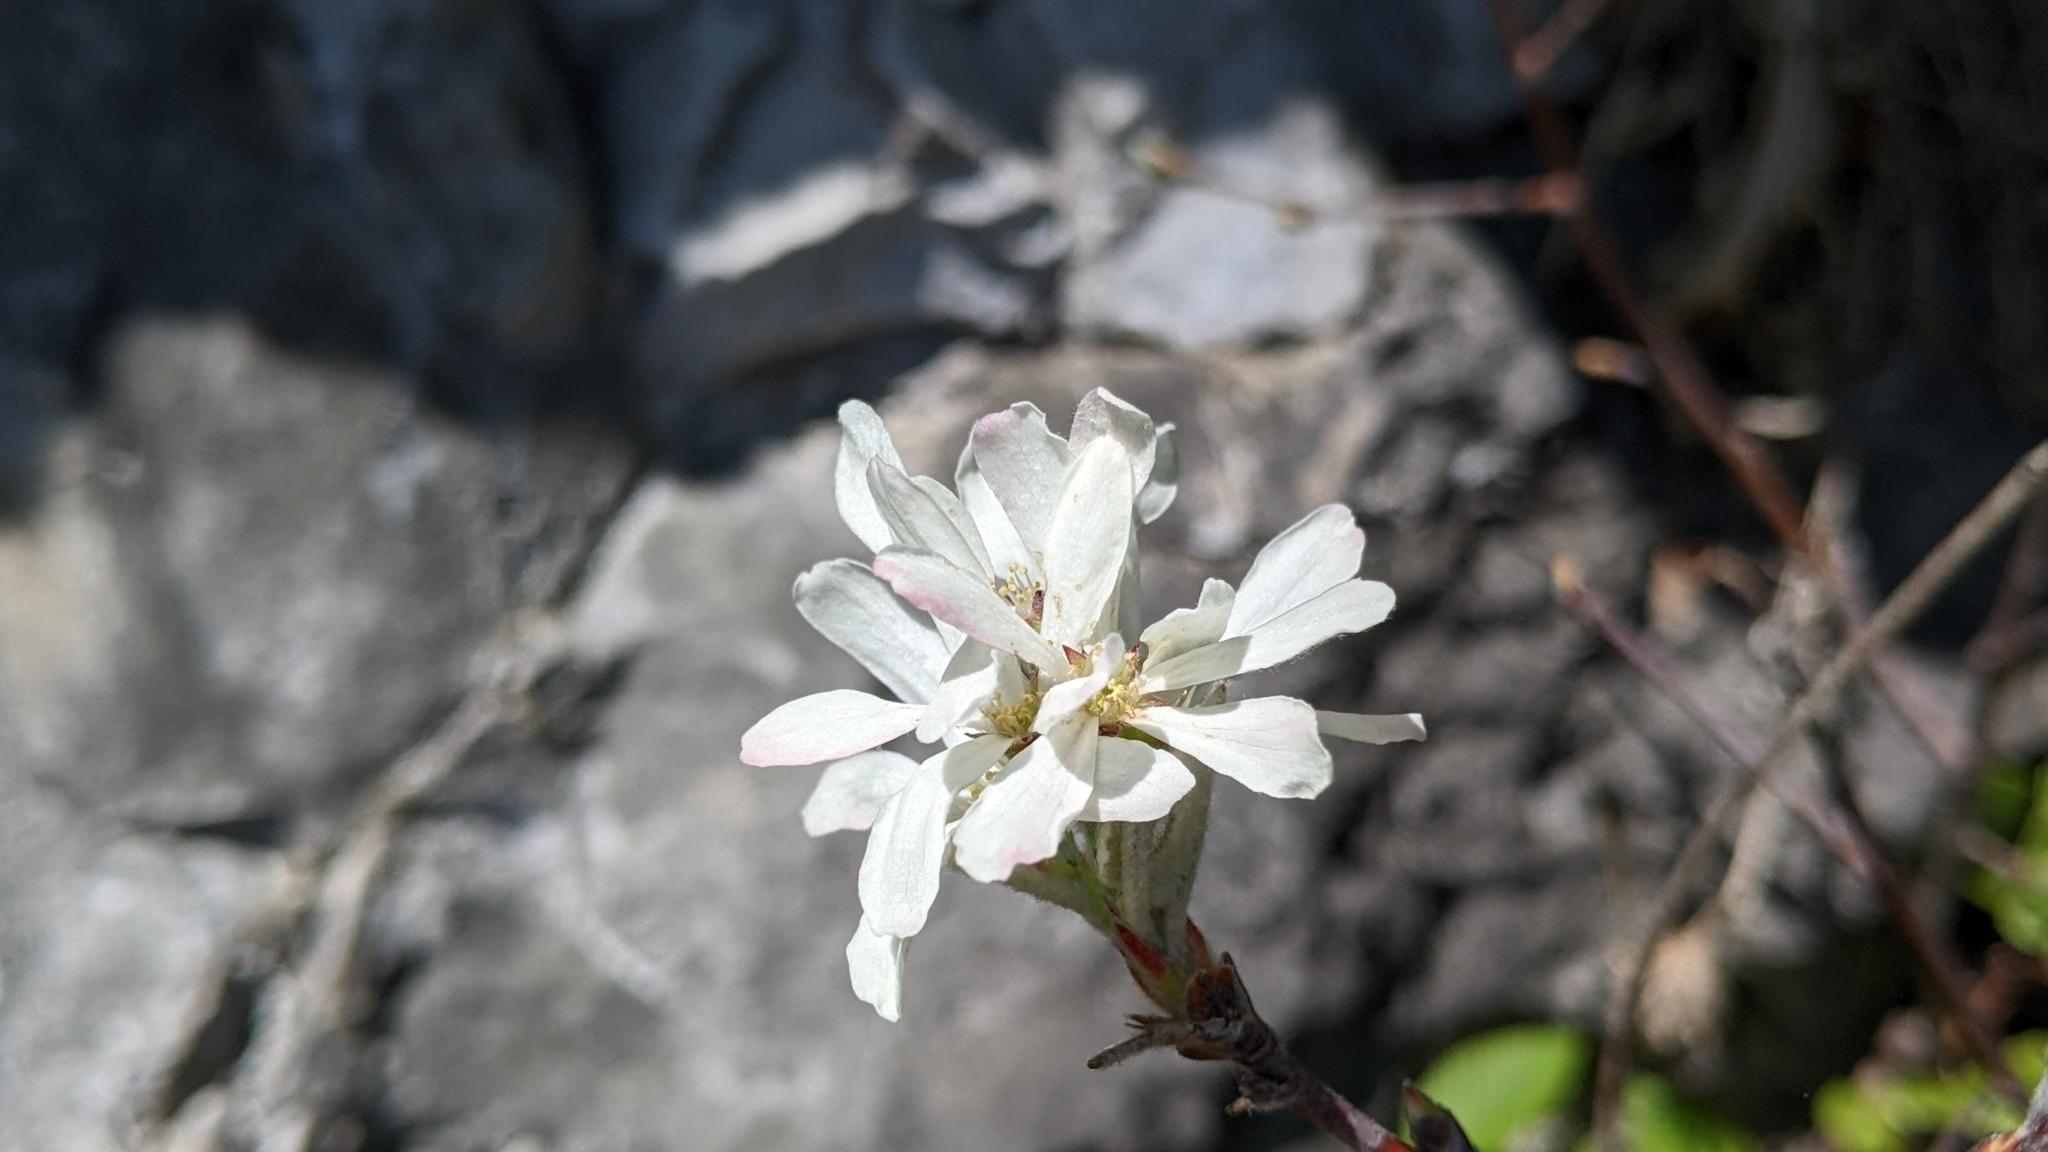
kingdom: Plantae
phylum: Tracheophyta
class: Magnoliopsida
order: Rosales
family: Rosaceae
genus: Amelanchier
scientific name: Amelanchier ovalis
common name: Serviceberry
